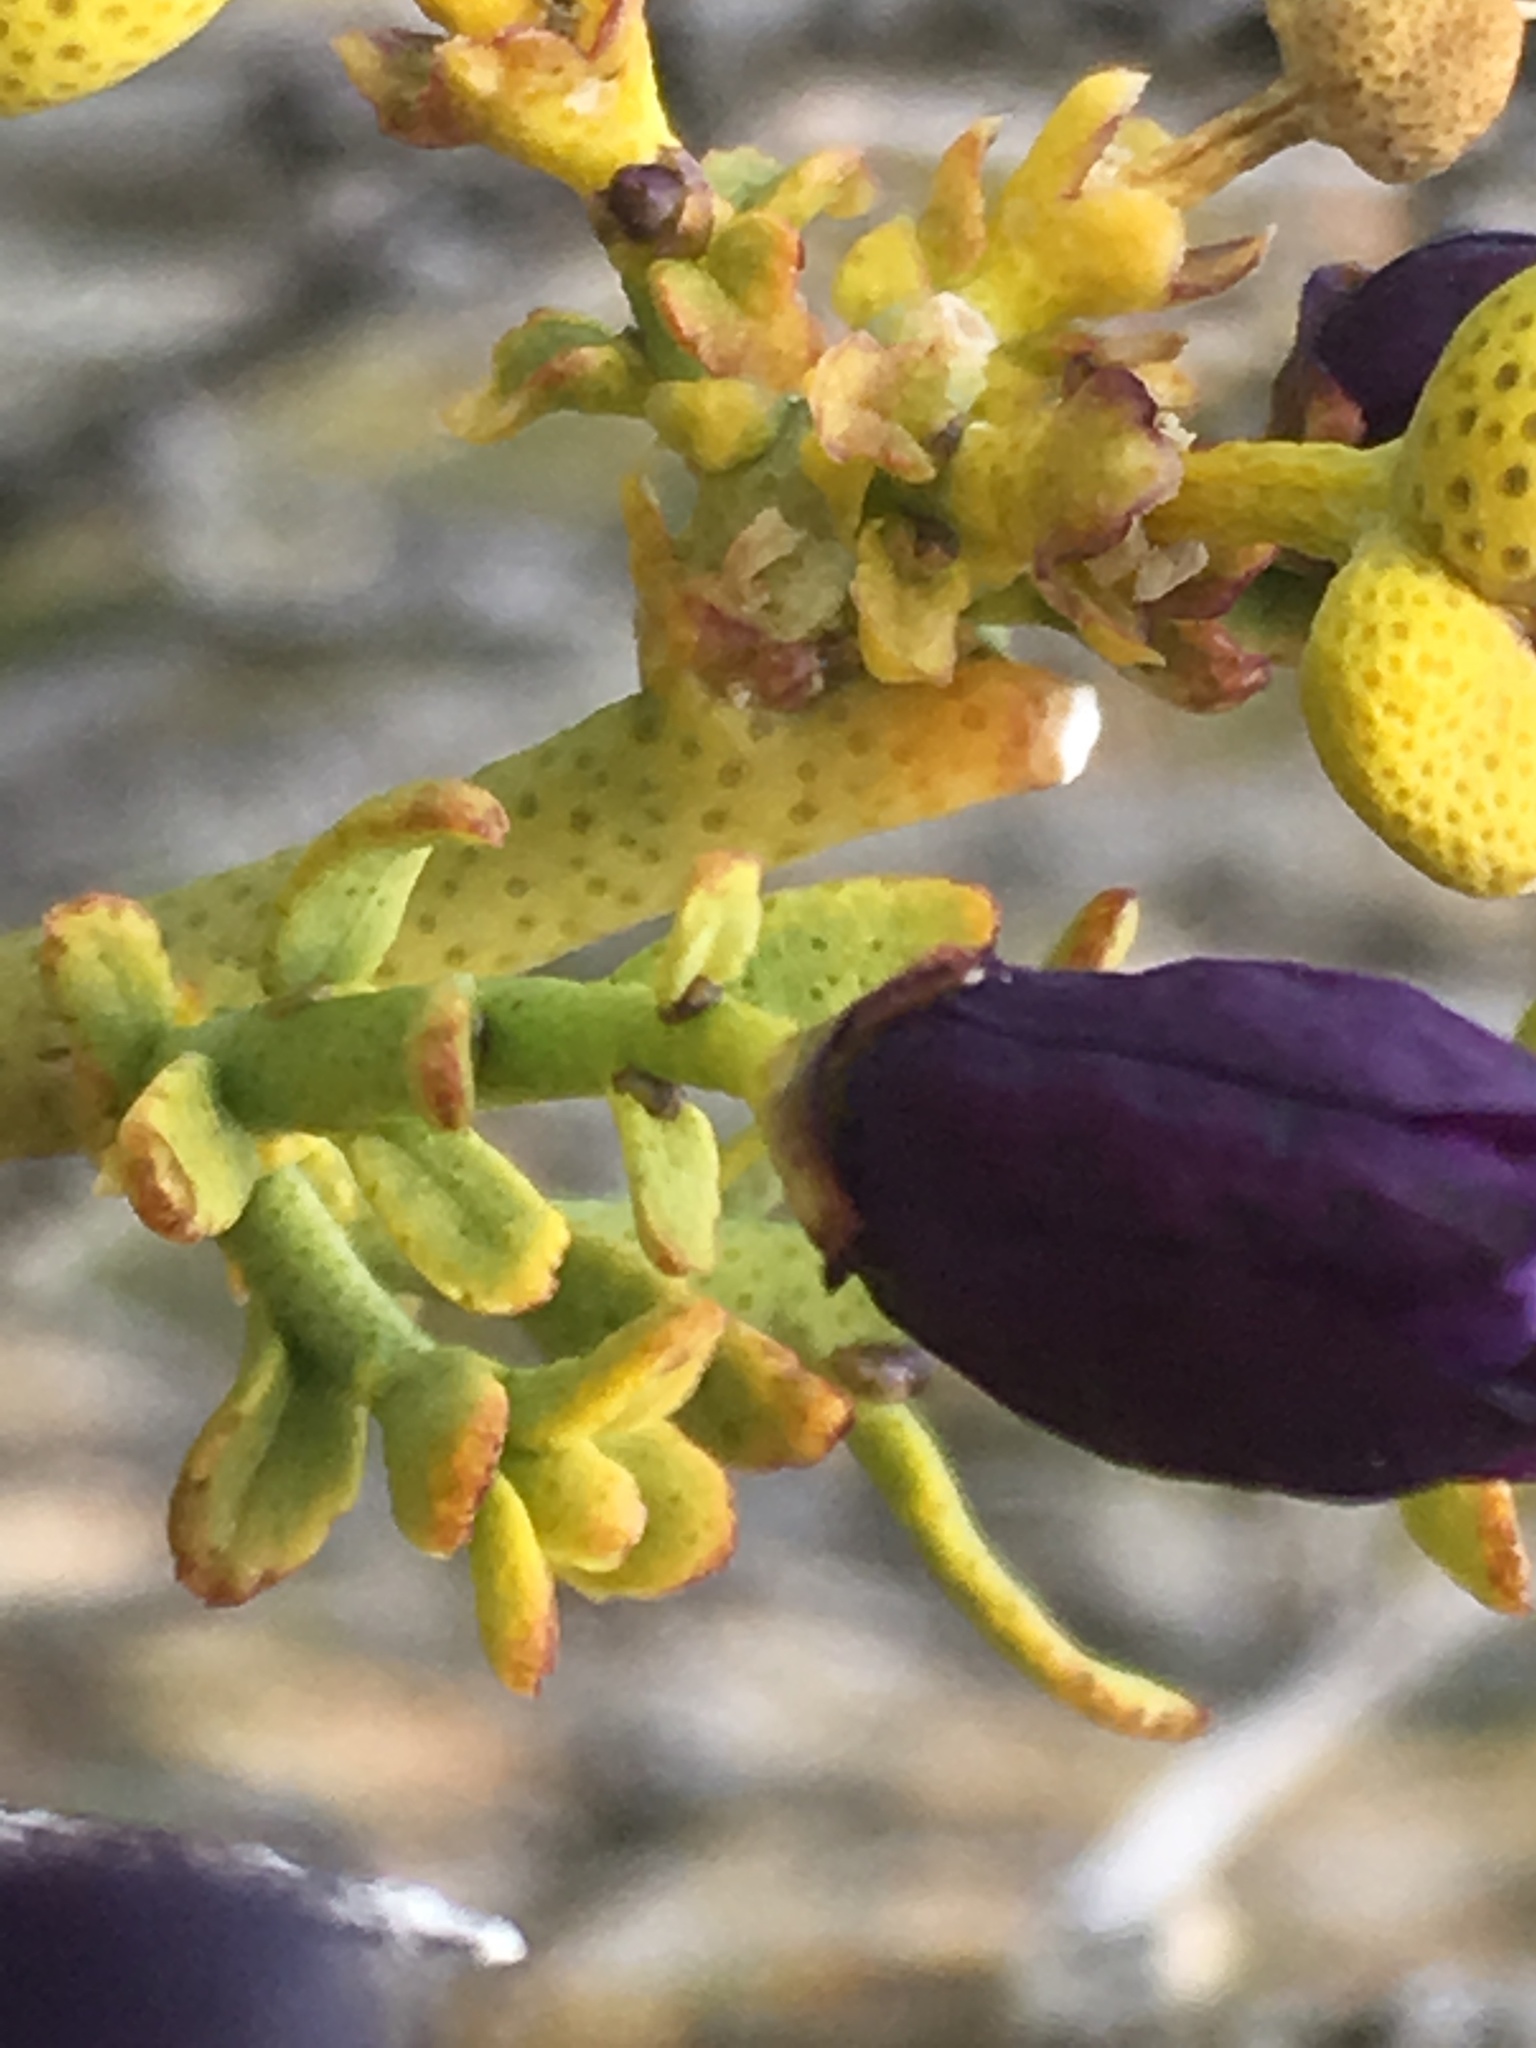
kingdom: Plantae
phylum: Tracheophyta
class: Magnoliopsida
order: Sapindales
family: Rutaceae
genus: Thamnosma
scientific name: Thamnosma montana
